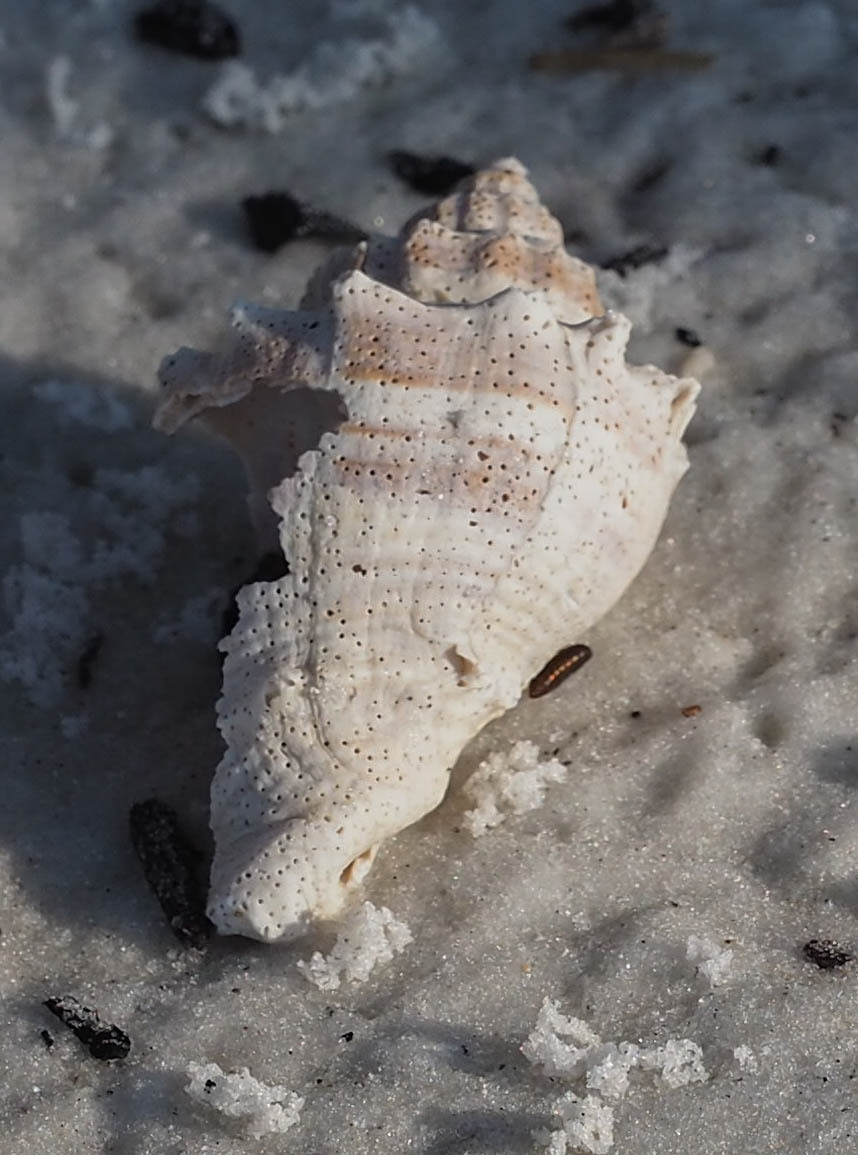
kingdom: Animalia
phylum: Mollusca
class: Gastropoda
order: Neogastropoda
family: Melongenidae
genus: Melongena
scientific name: Melongena corona
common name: American crown conch
